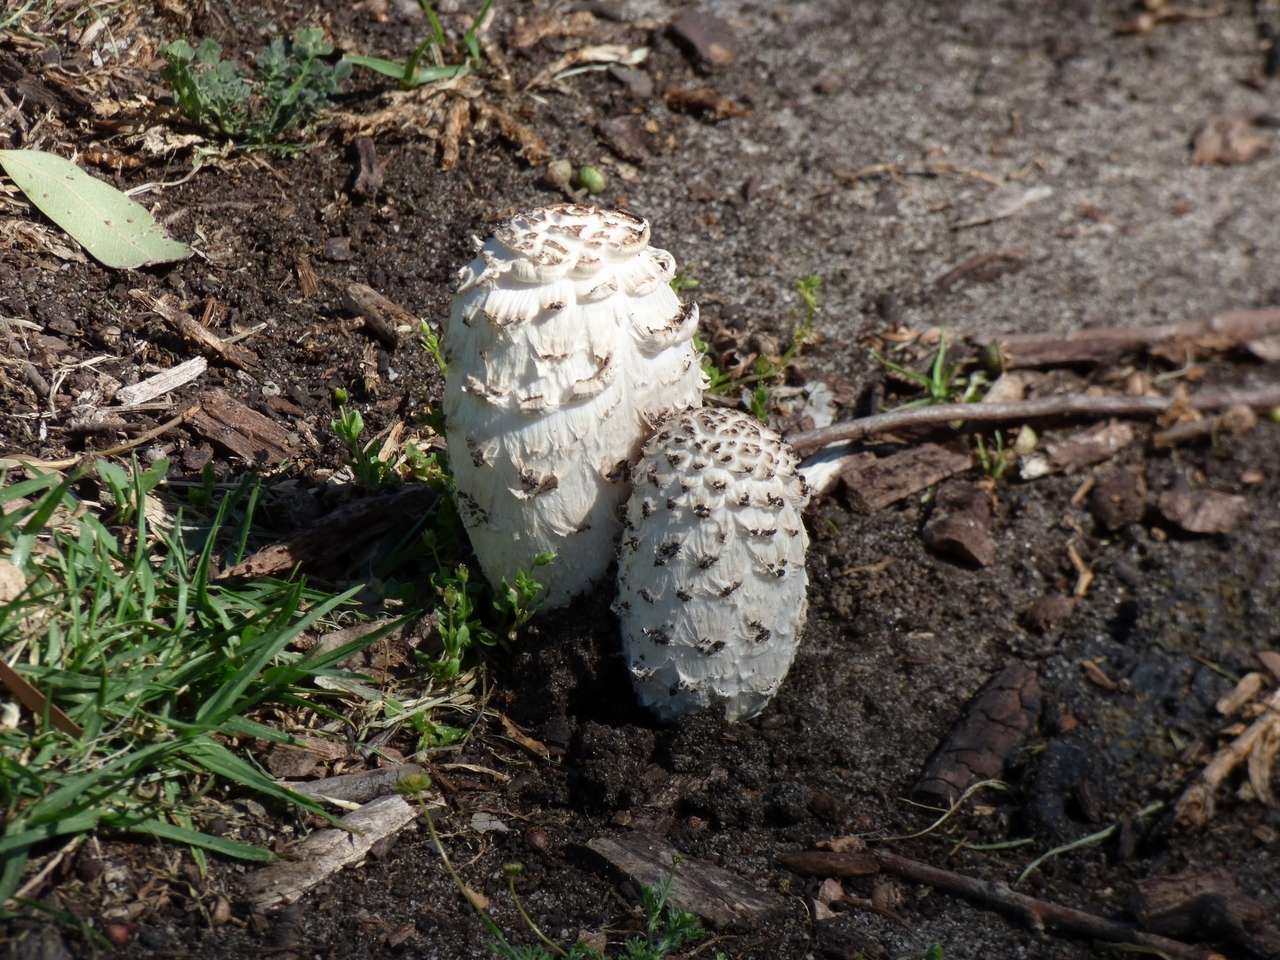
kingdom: Fungi
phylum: Basidiomycota
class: Agaricomycetes
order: Agaricales
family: Agaricaceae
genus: Coprinus
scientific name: Coprinus comatus
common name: Lawyer's wig
